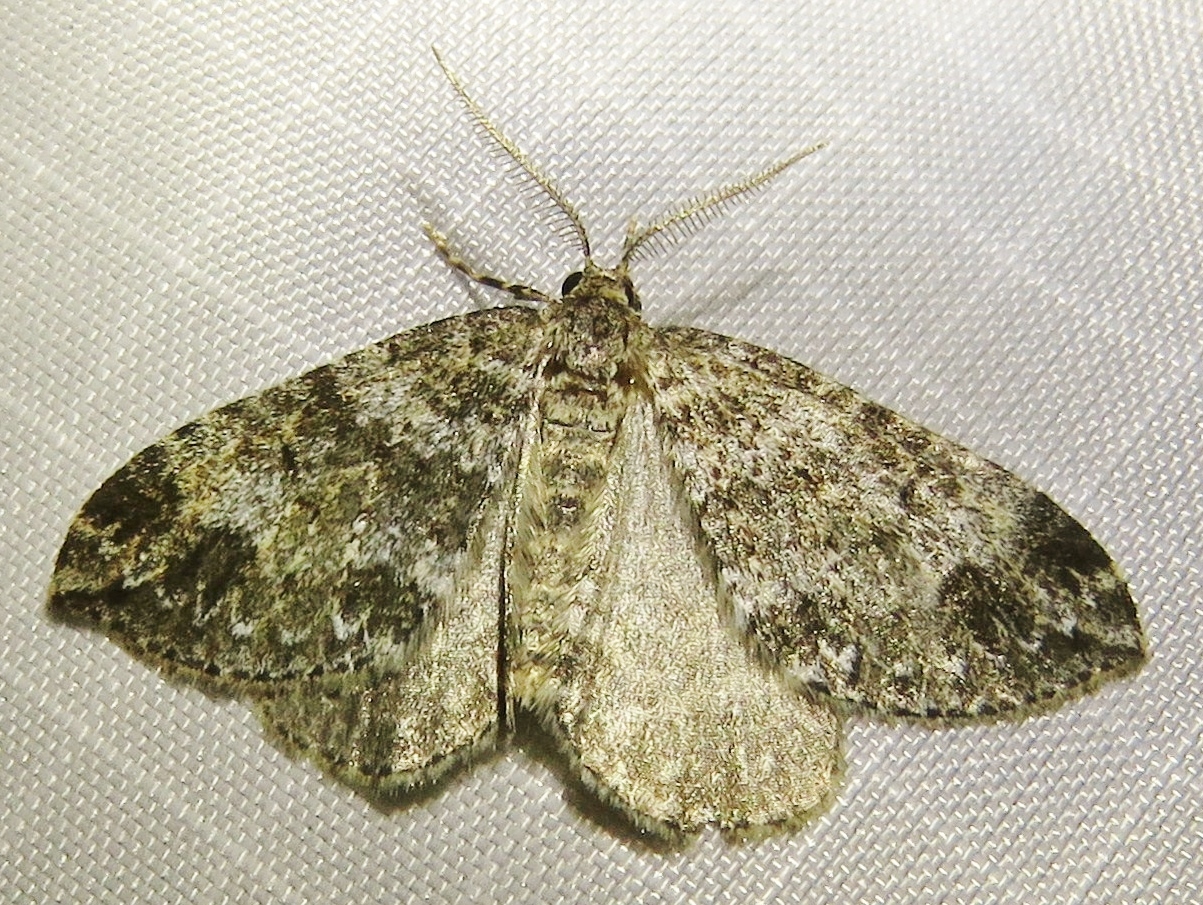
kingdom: Animalia
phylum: Arthropoda
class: Insecta
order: Lepidoptera
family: Geometridae
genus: Perizoma
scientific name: Perizoma didymata
